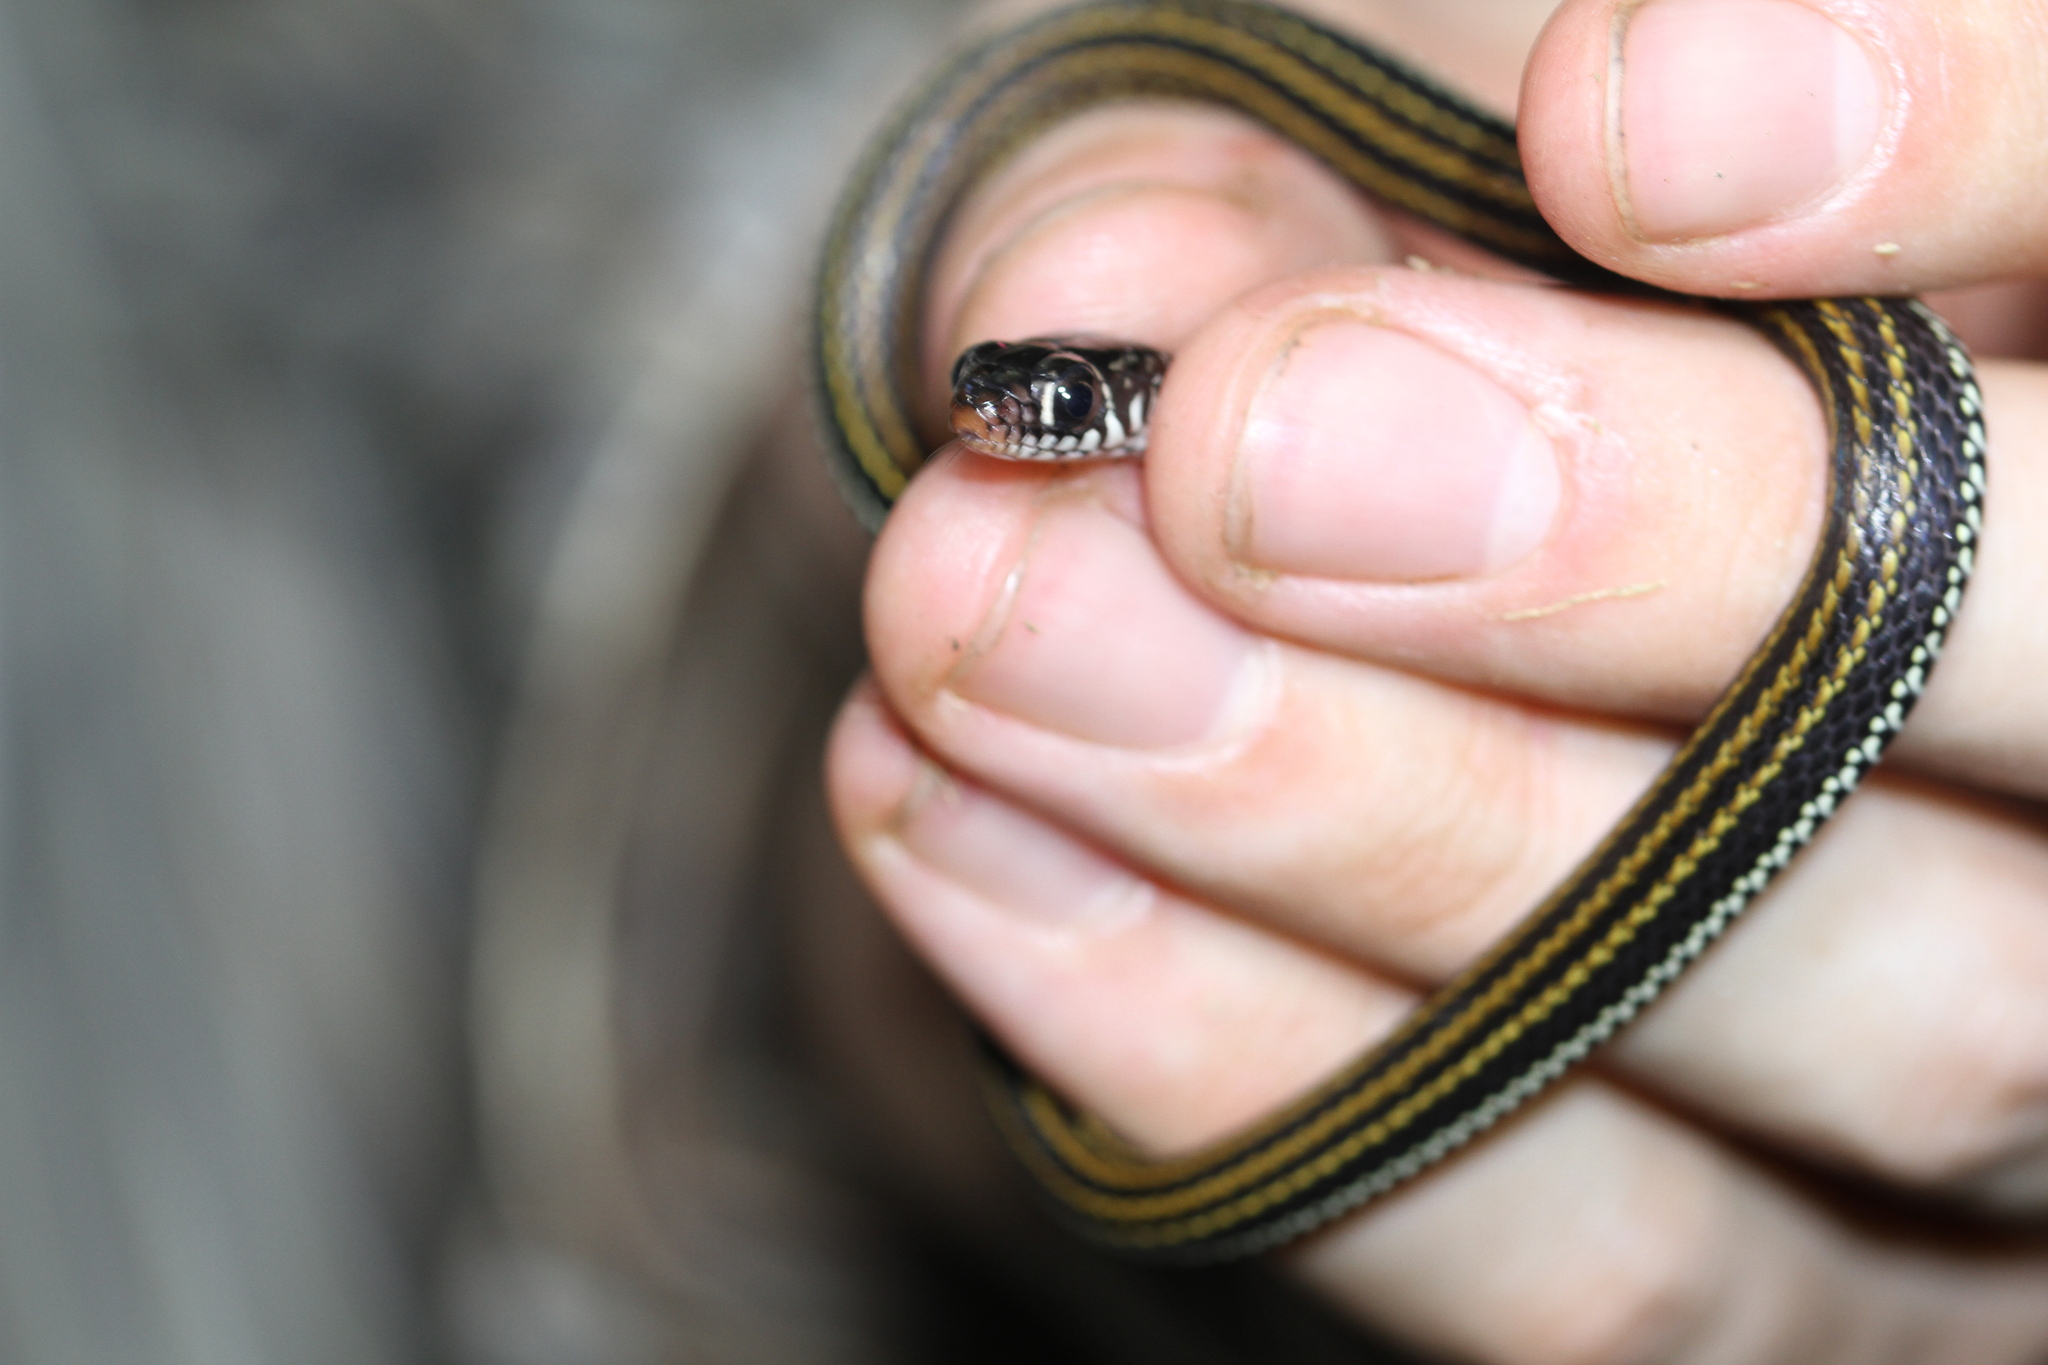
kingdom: Animalia
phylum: Chordata
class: Squamata
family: Colubridae
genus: Xenochrophis
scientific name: Xenochrophis vittatus
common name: Striped keelback
